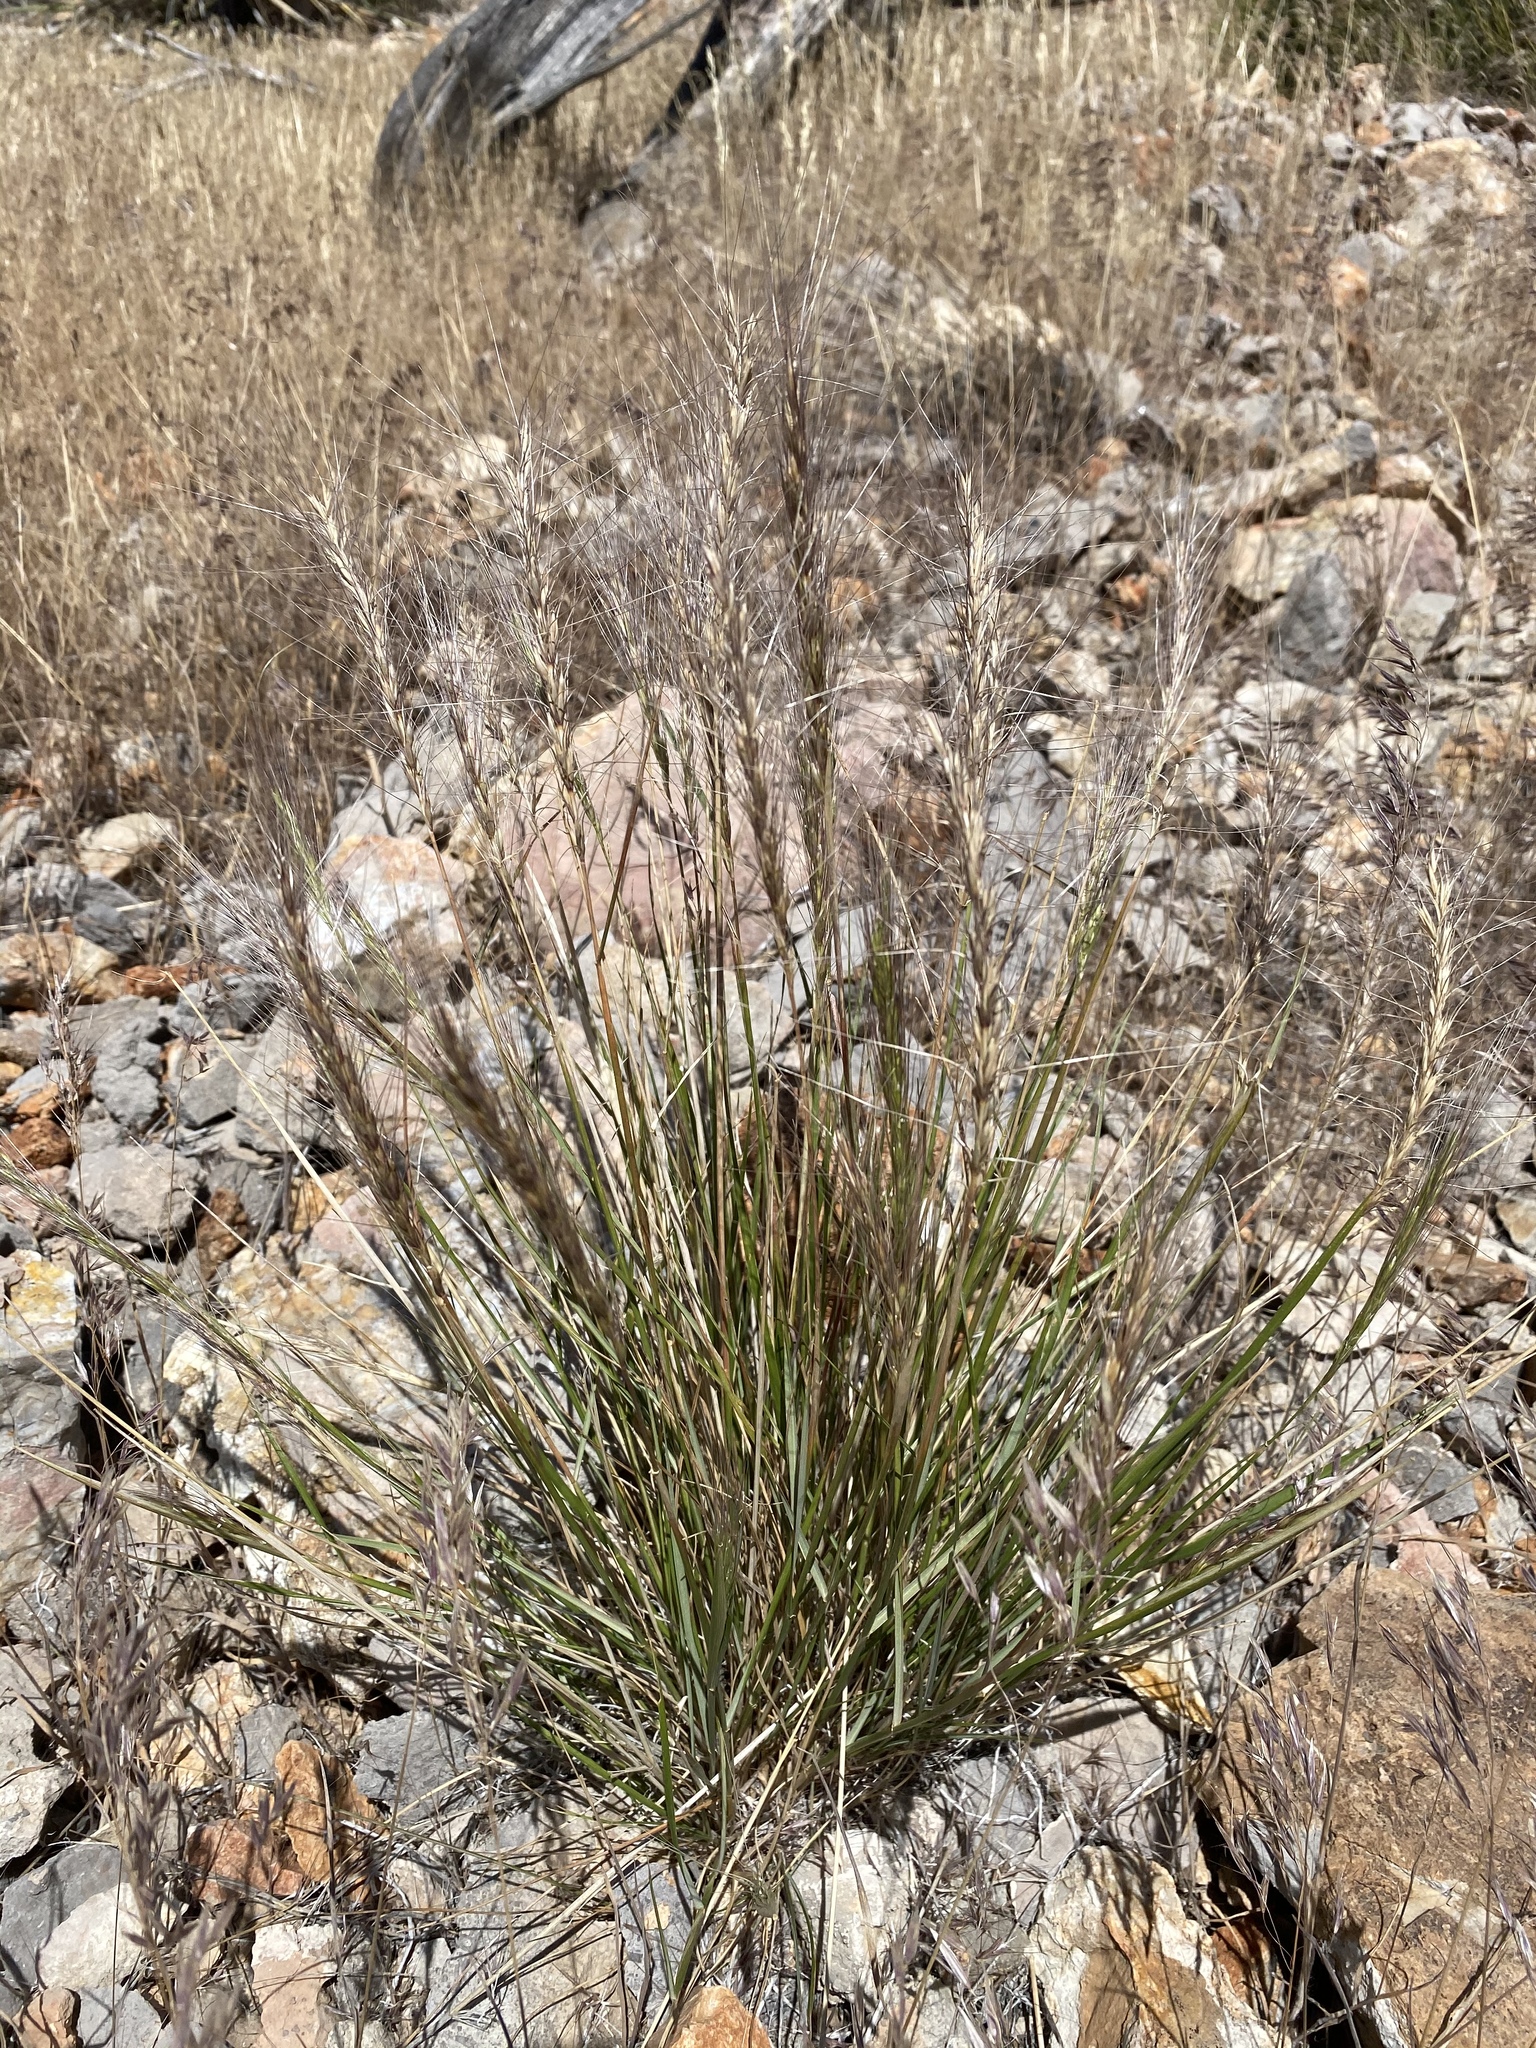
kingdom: Plantae
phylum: Tracheophyta
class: Liliopsida
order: Poales
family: Poaceae
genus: Elymus
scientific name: Elymus elymoides
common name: Bottlebrush squirreltail
